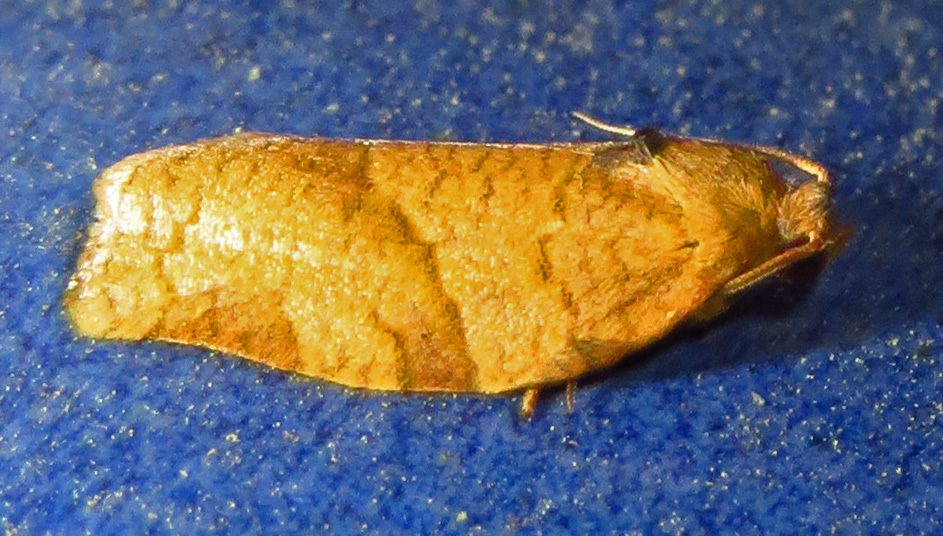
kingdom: Animalia
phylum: Arthropoda
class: Insecta
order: Lepidoptera
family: Tortricidae
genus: Choristoneura
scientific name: Choristoneura rosaceana
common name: Oblique-banded leafroller moth
